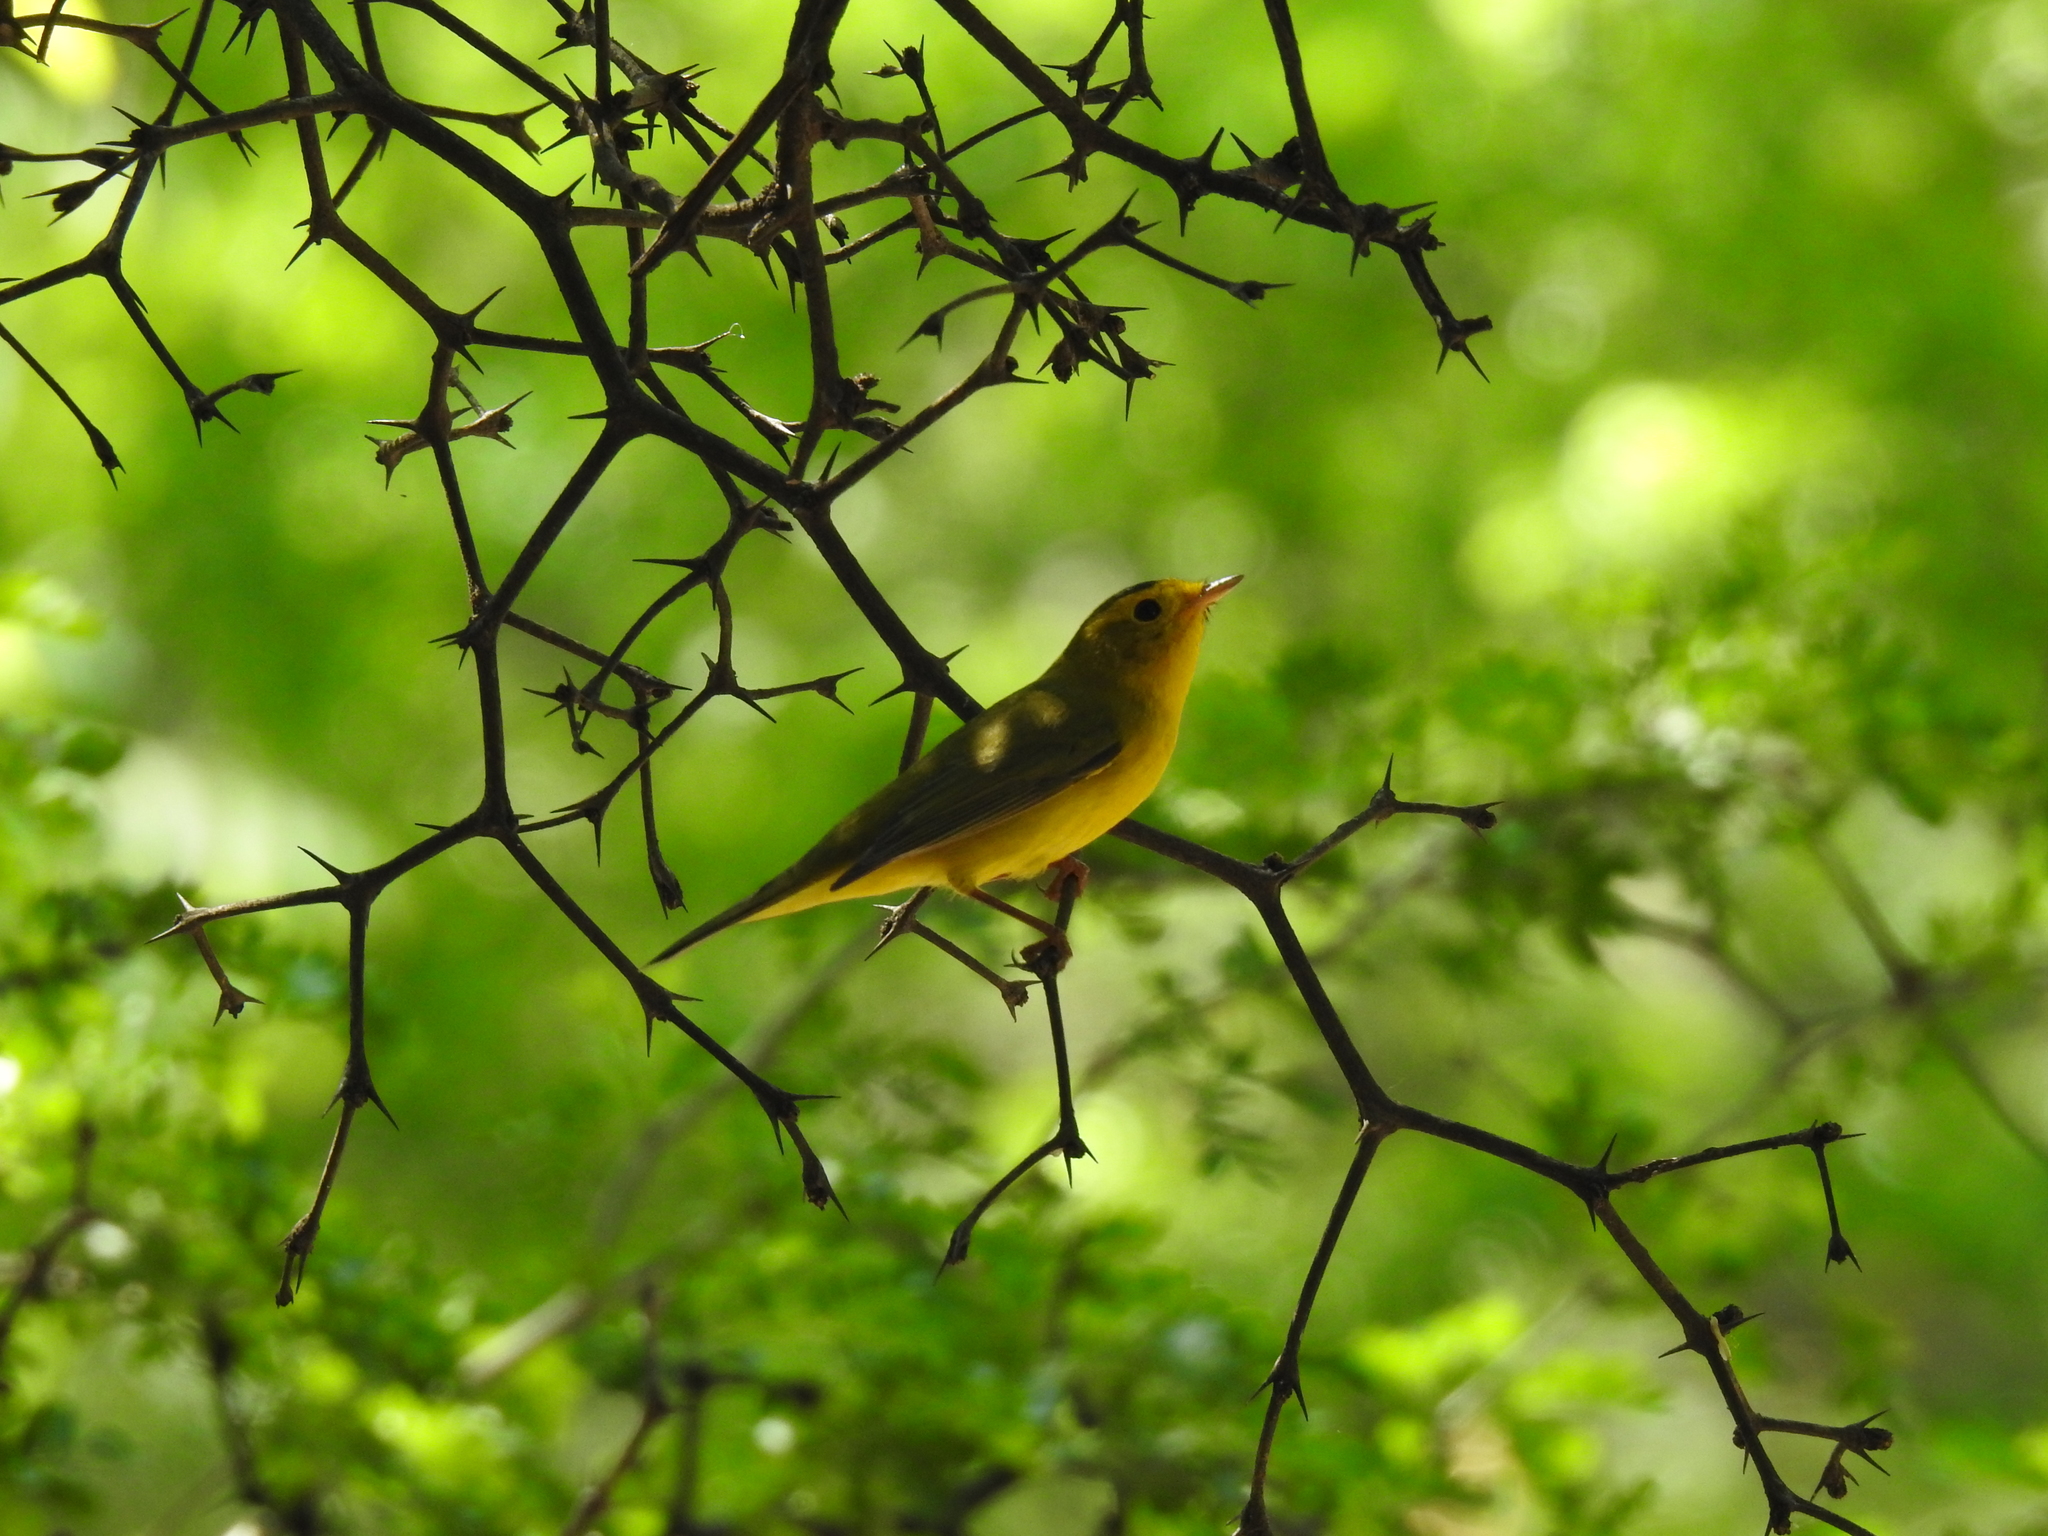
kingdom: Animalia
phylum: Chordata
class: Aves
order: Passeriformes
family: Parulidae
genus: Cardellina
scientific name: Cardellina pusilla
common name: Wilson's warbler
